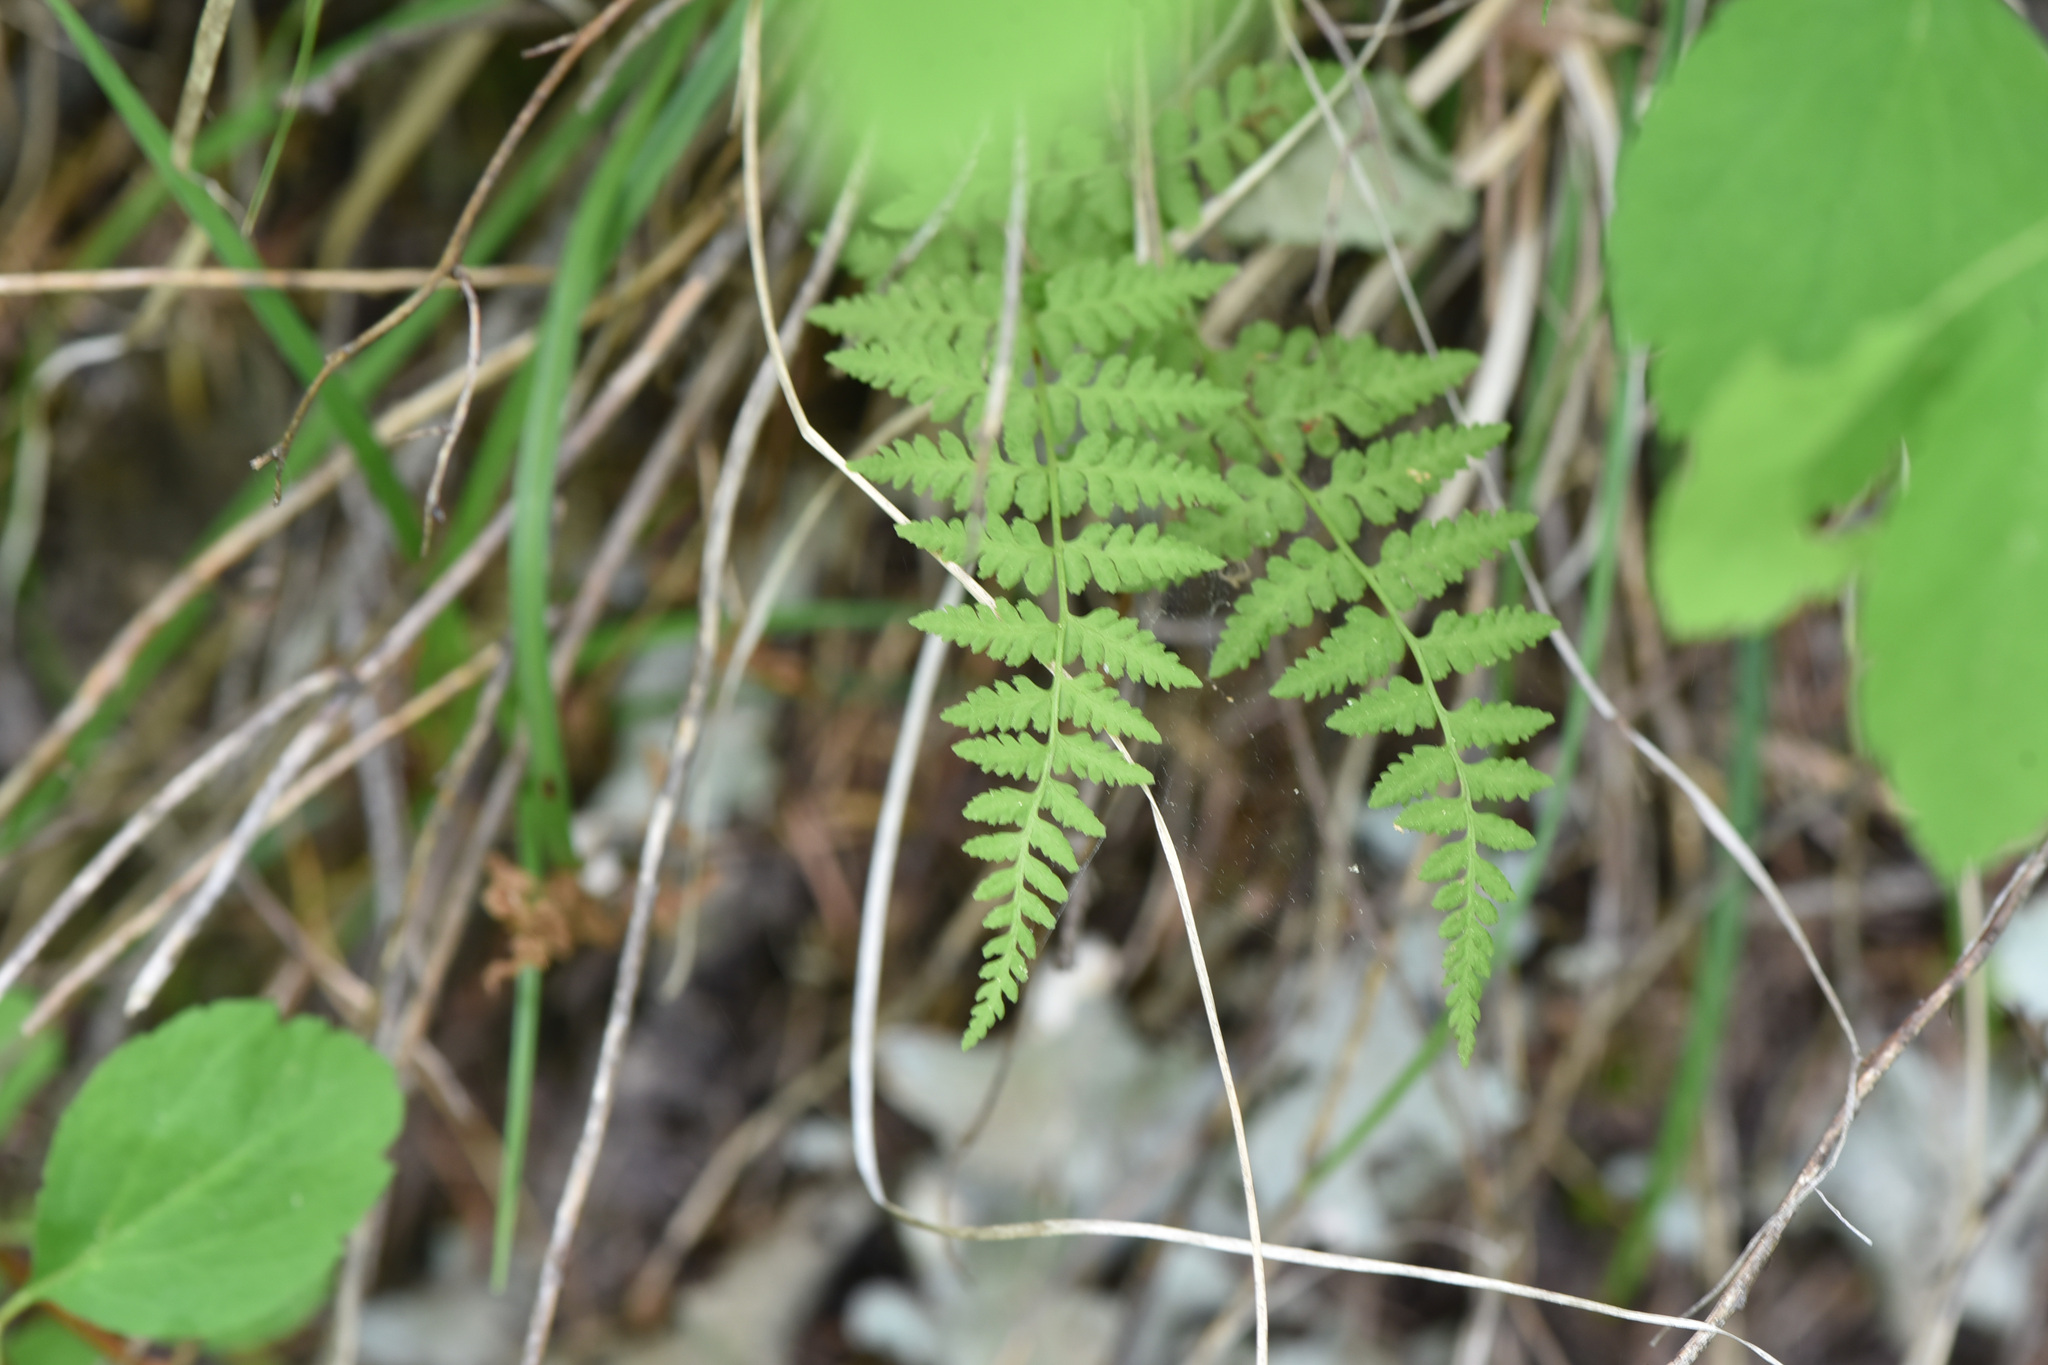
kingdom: Plantae
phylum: Tracheophyta
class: Polypodiopsida
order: Polypodiales
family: Cystopteridaceae
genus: Cystopteris
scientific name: Cystopteris fragilis
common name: Brittle bladder fern
